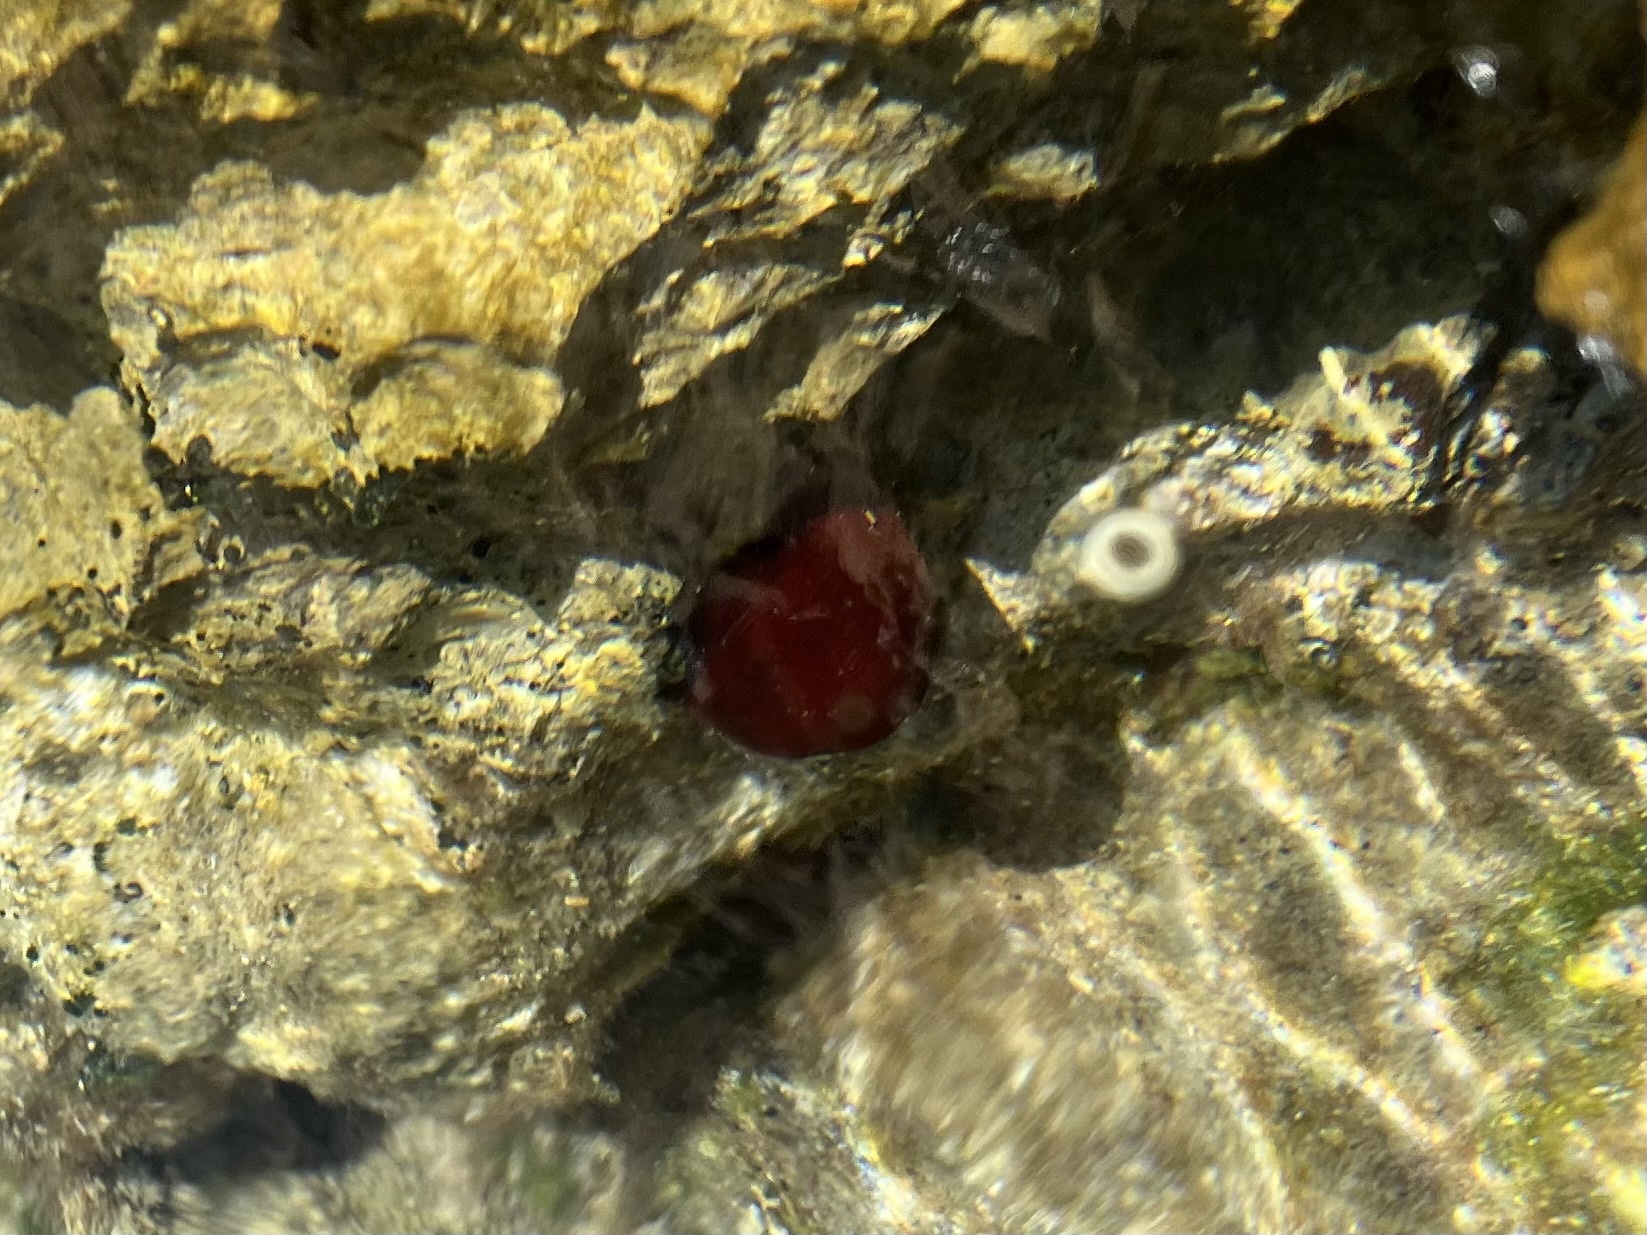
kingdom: Animalia
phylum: Cnidaria
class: Anthozoa
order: Actiniaria
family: Actiniidae
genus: Actinia
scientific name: Actinia mediterranea
